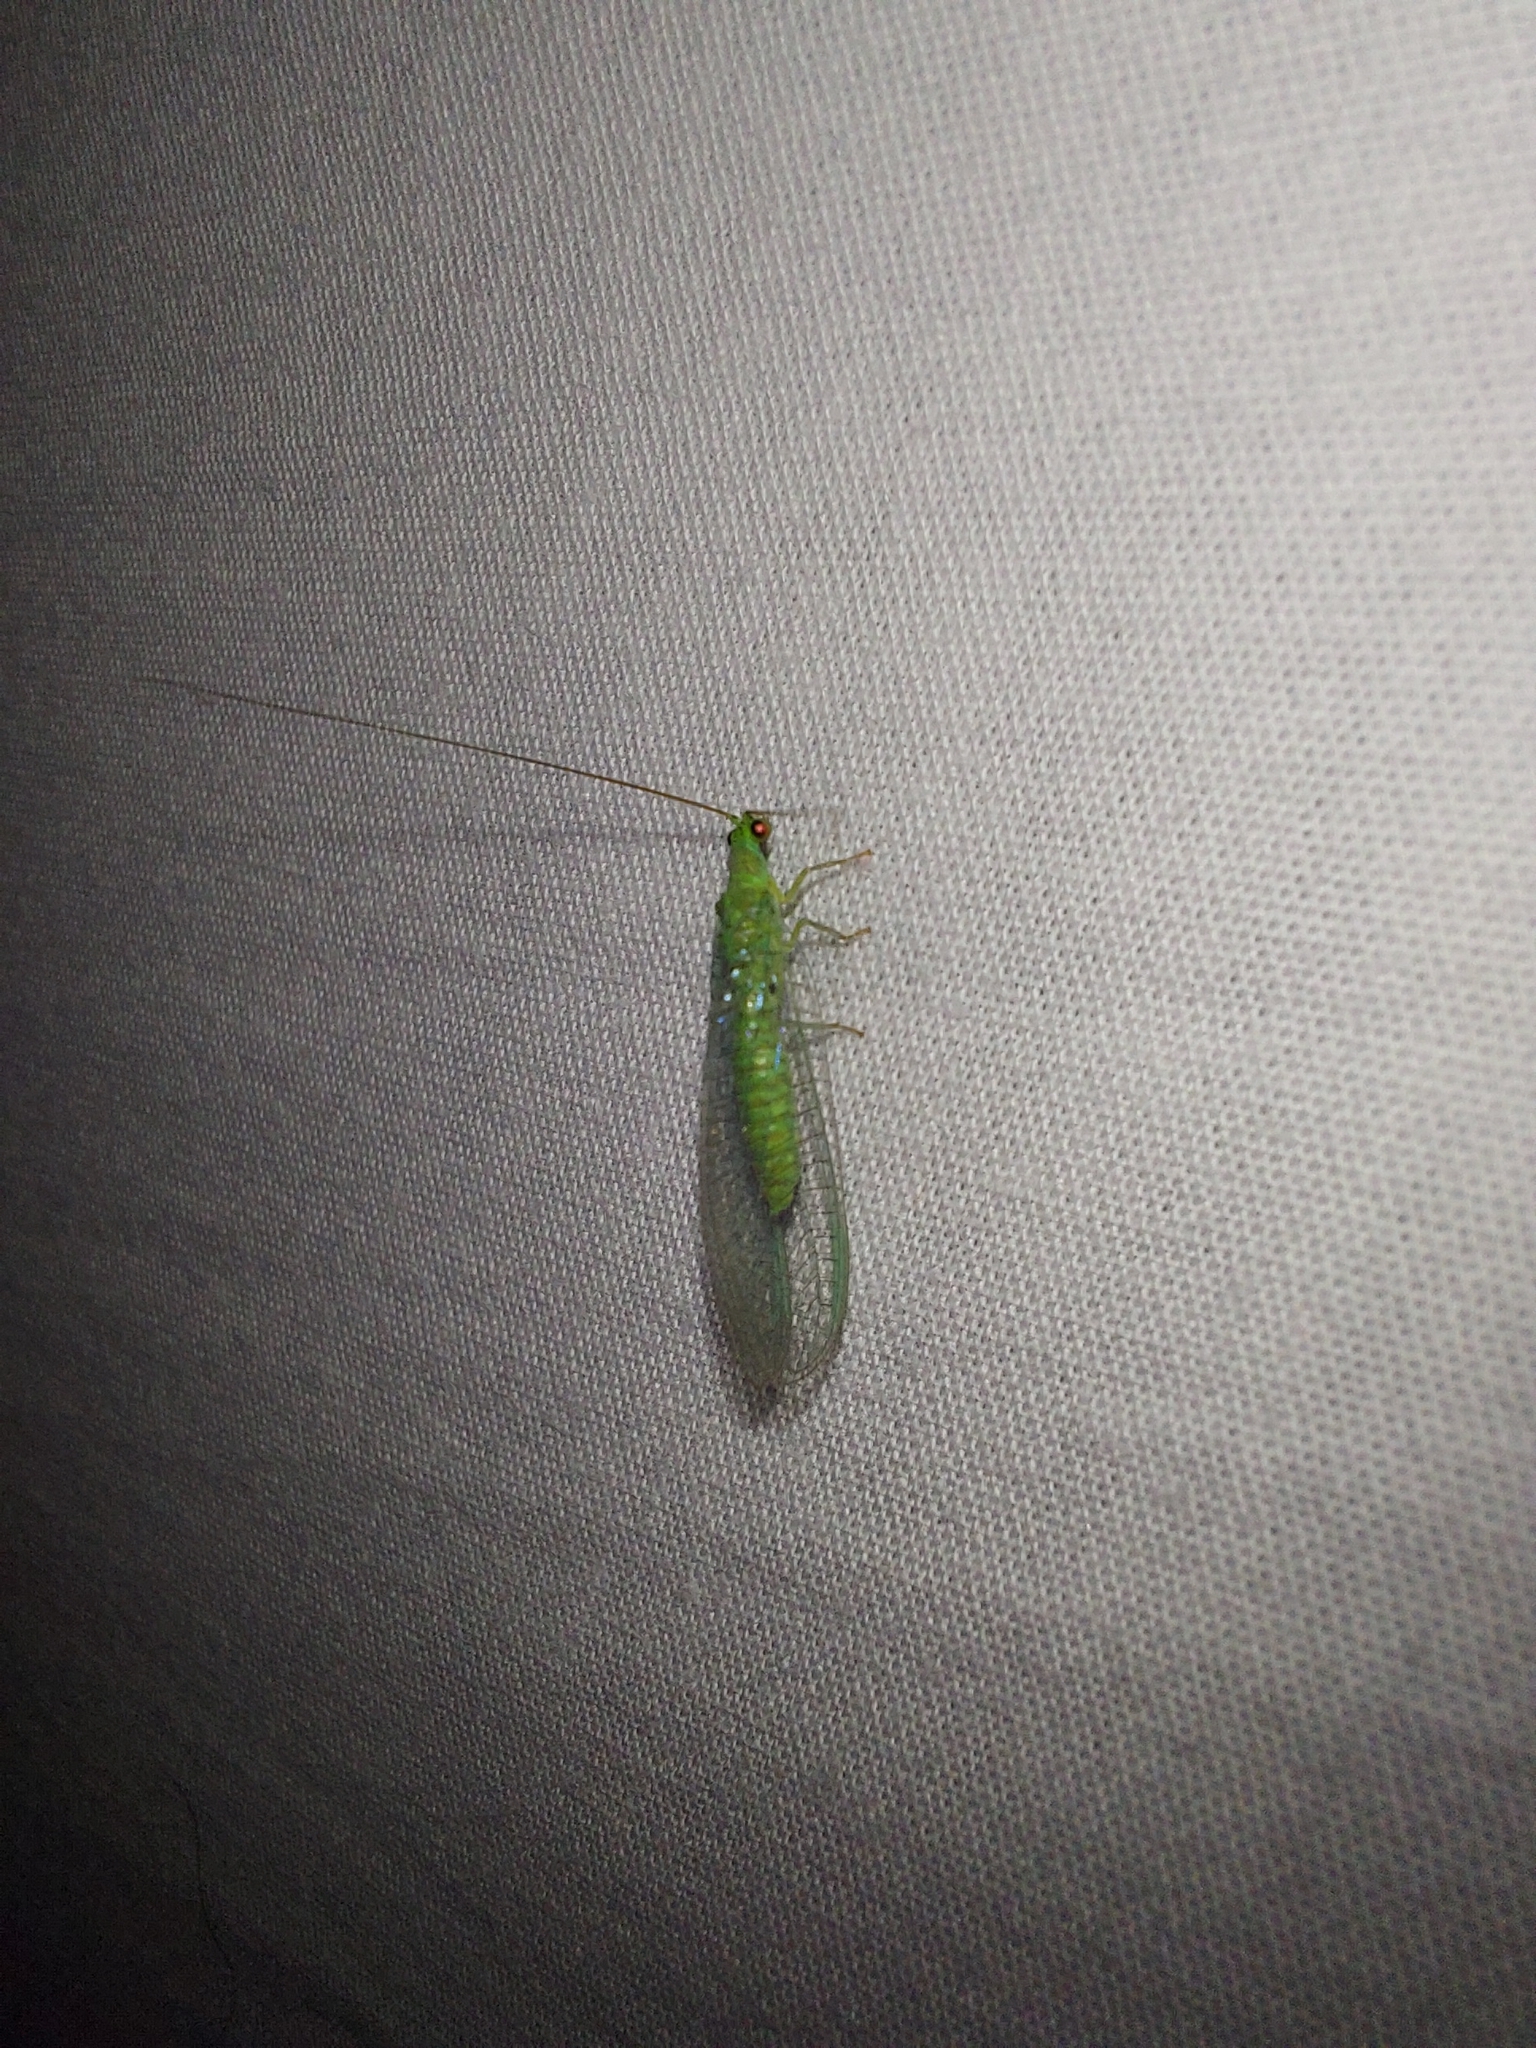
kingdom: Animalia
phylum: Arthropoda
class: Insecta
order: Neuroptera
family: Chrysopidae
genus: Mallada
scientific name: Mallada signatus
